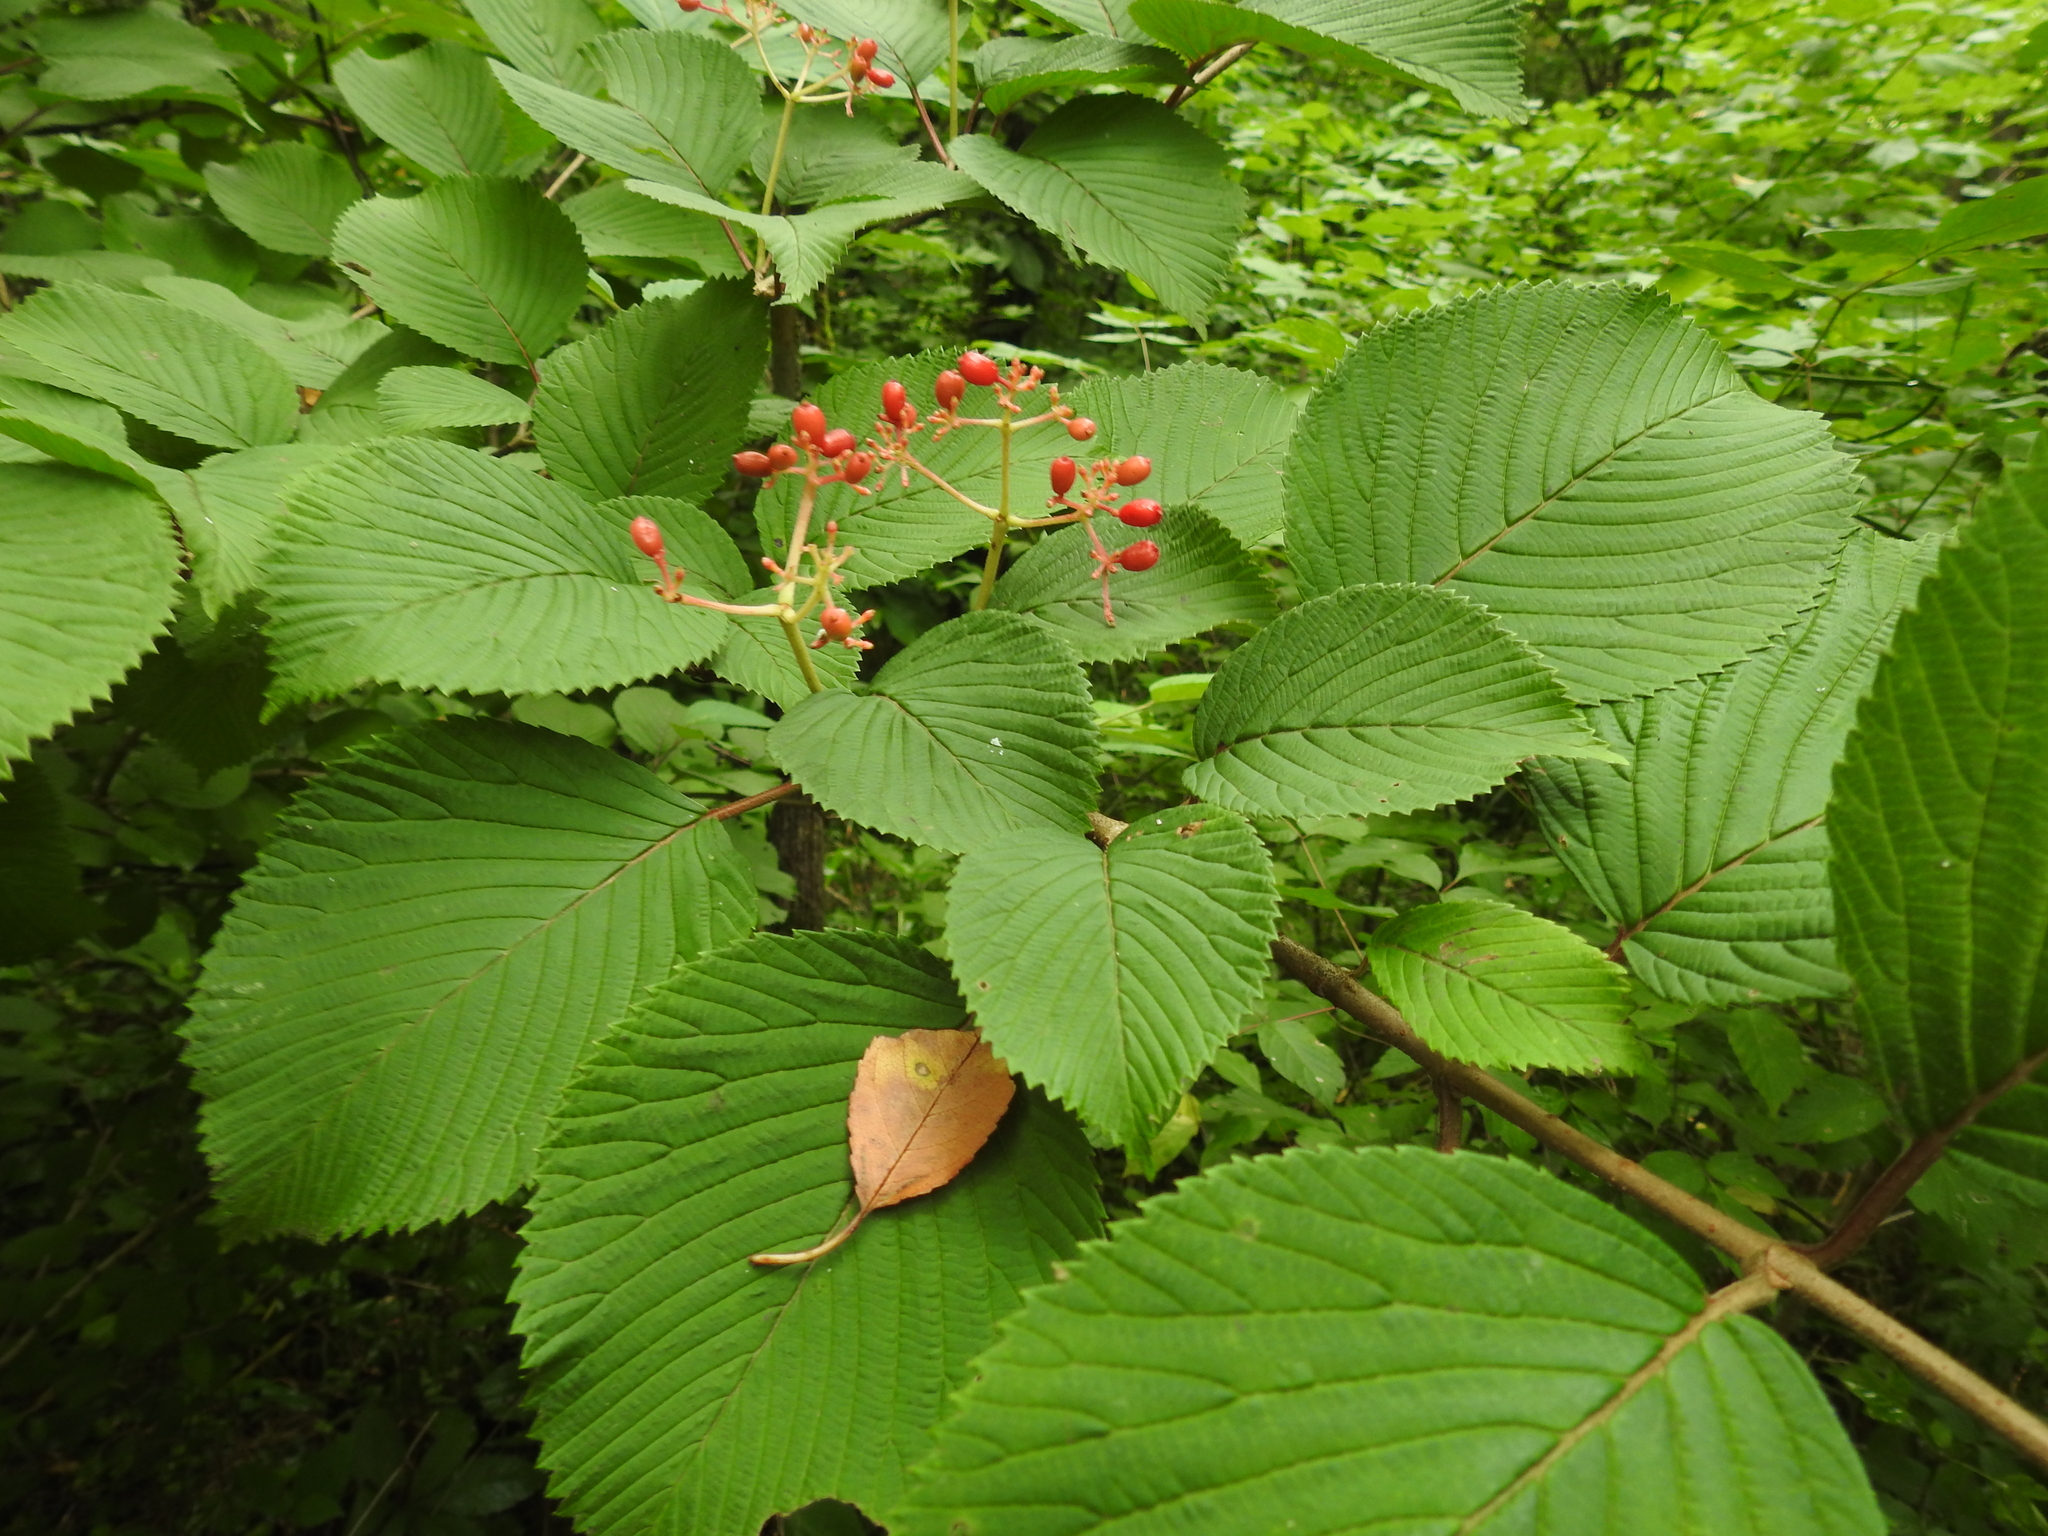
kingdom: Plantae
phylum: Tracheophyta
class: Magnoliopsida
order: Dipsacales
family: Viburnaceae
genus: Viburnum
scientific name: Viburnum plicatum
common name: Japanese snowball
